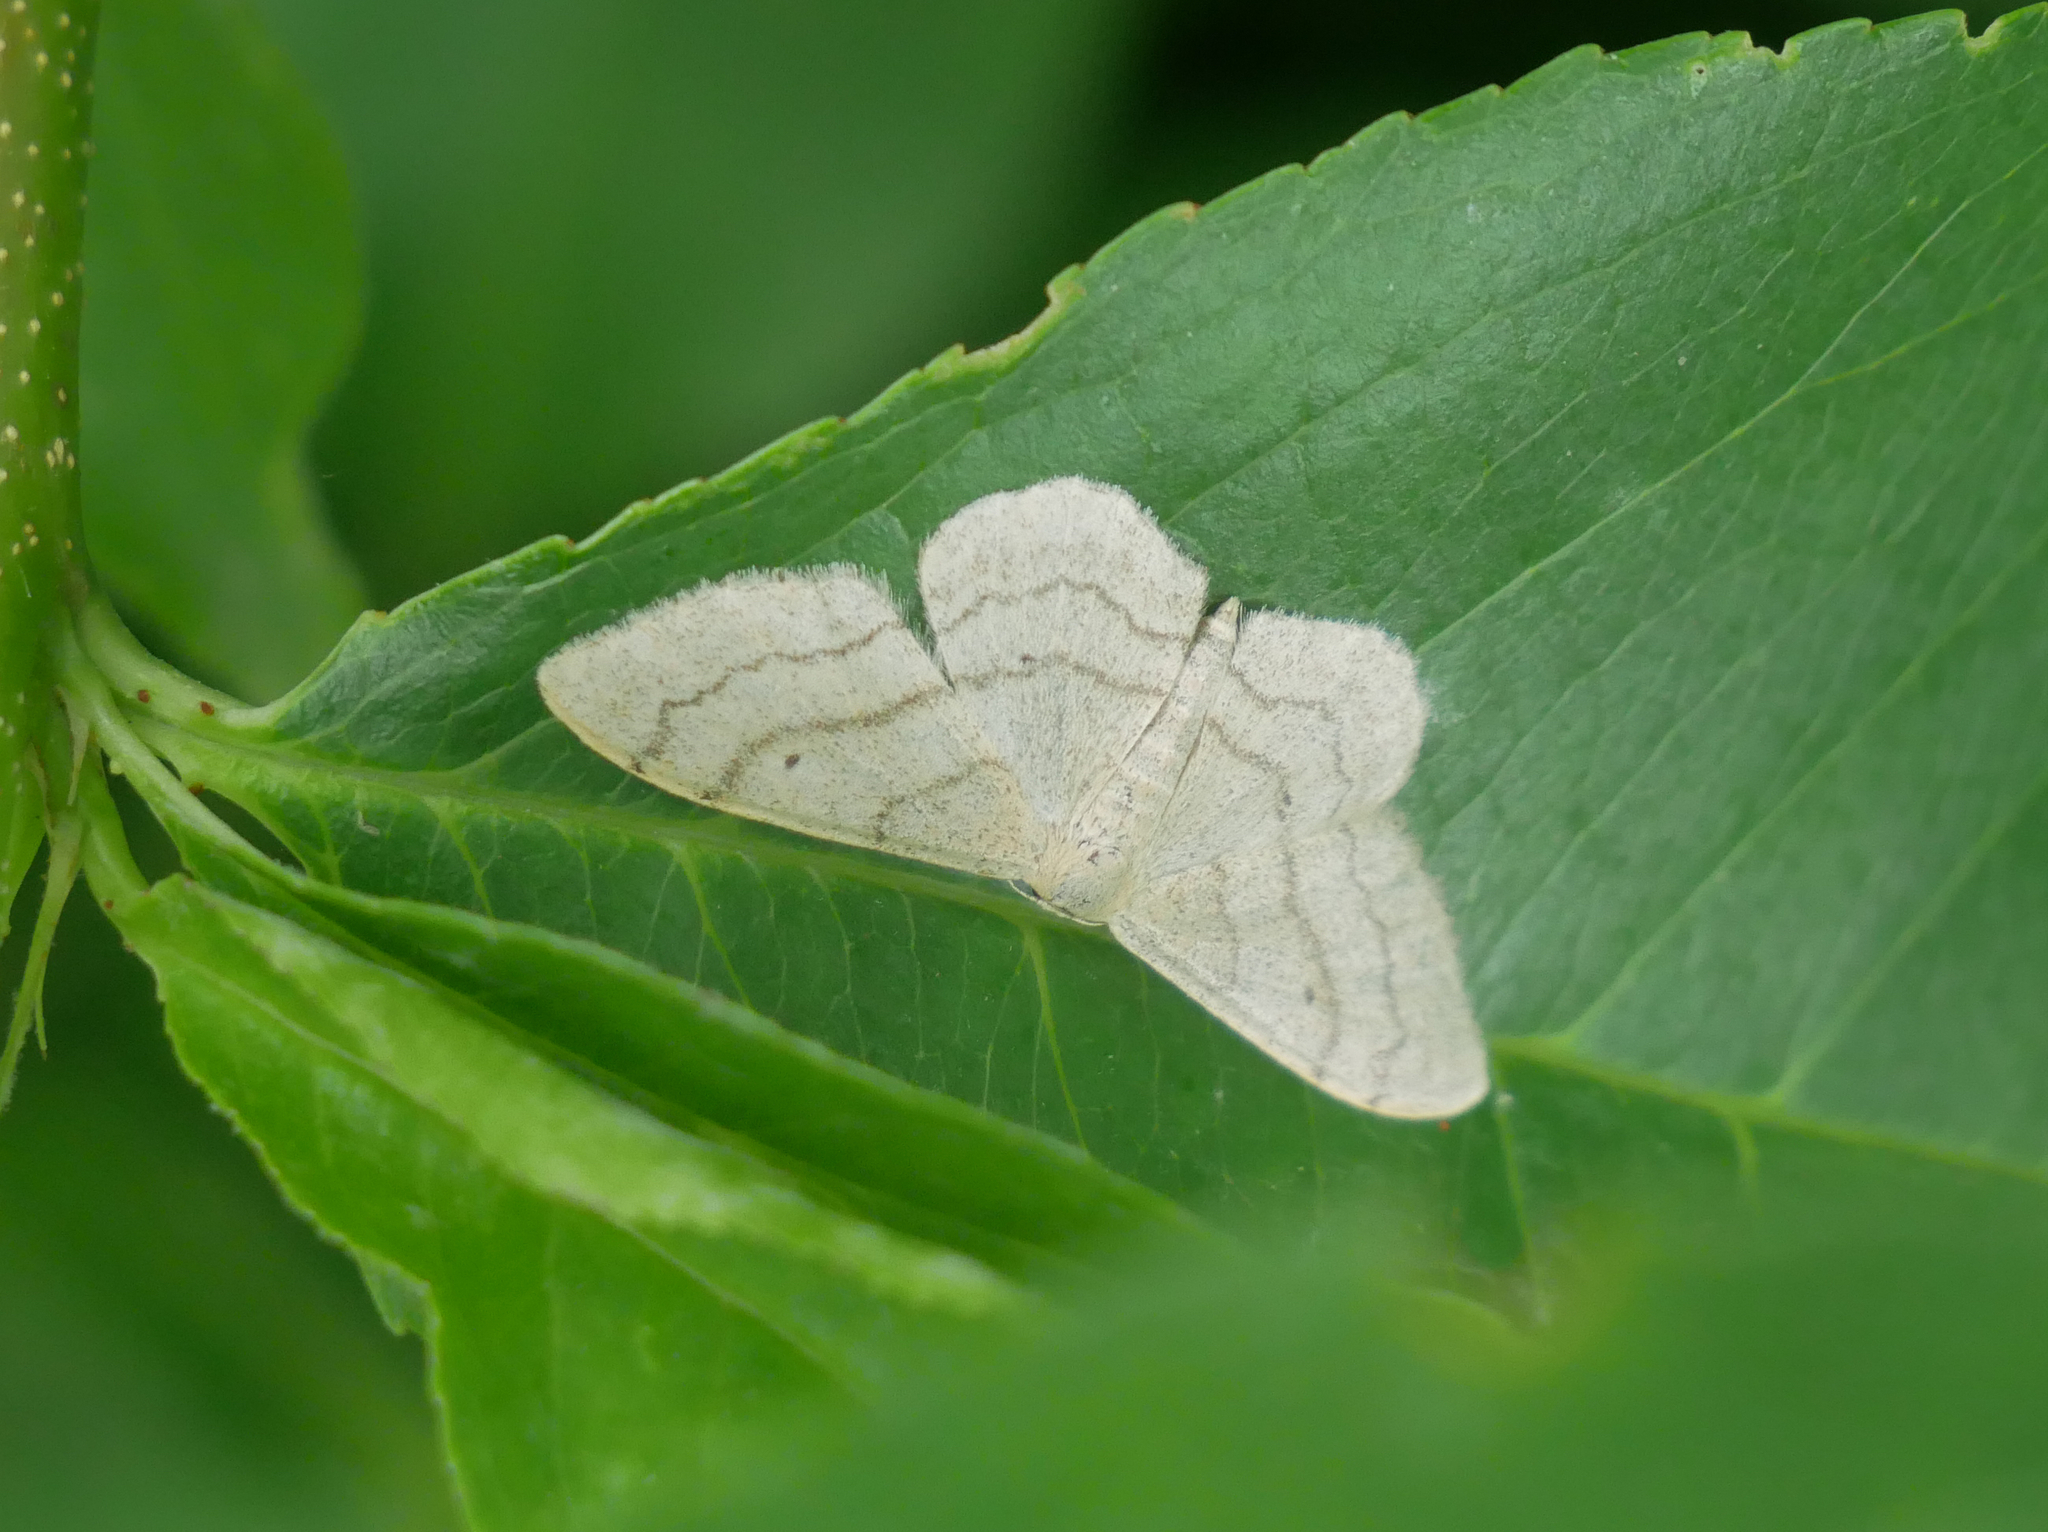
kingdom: Animalia
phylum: Arthropoda
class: Insecta
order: Lepidoptera
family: Geometridae
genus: Idaea
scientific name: Idaea aversata
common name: Riband wave
